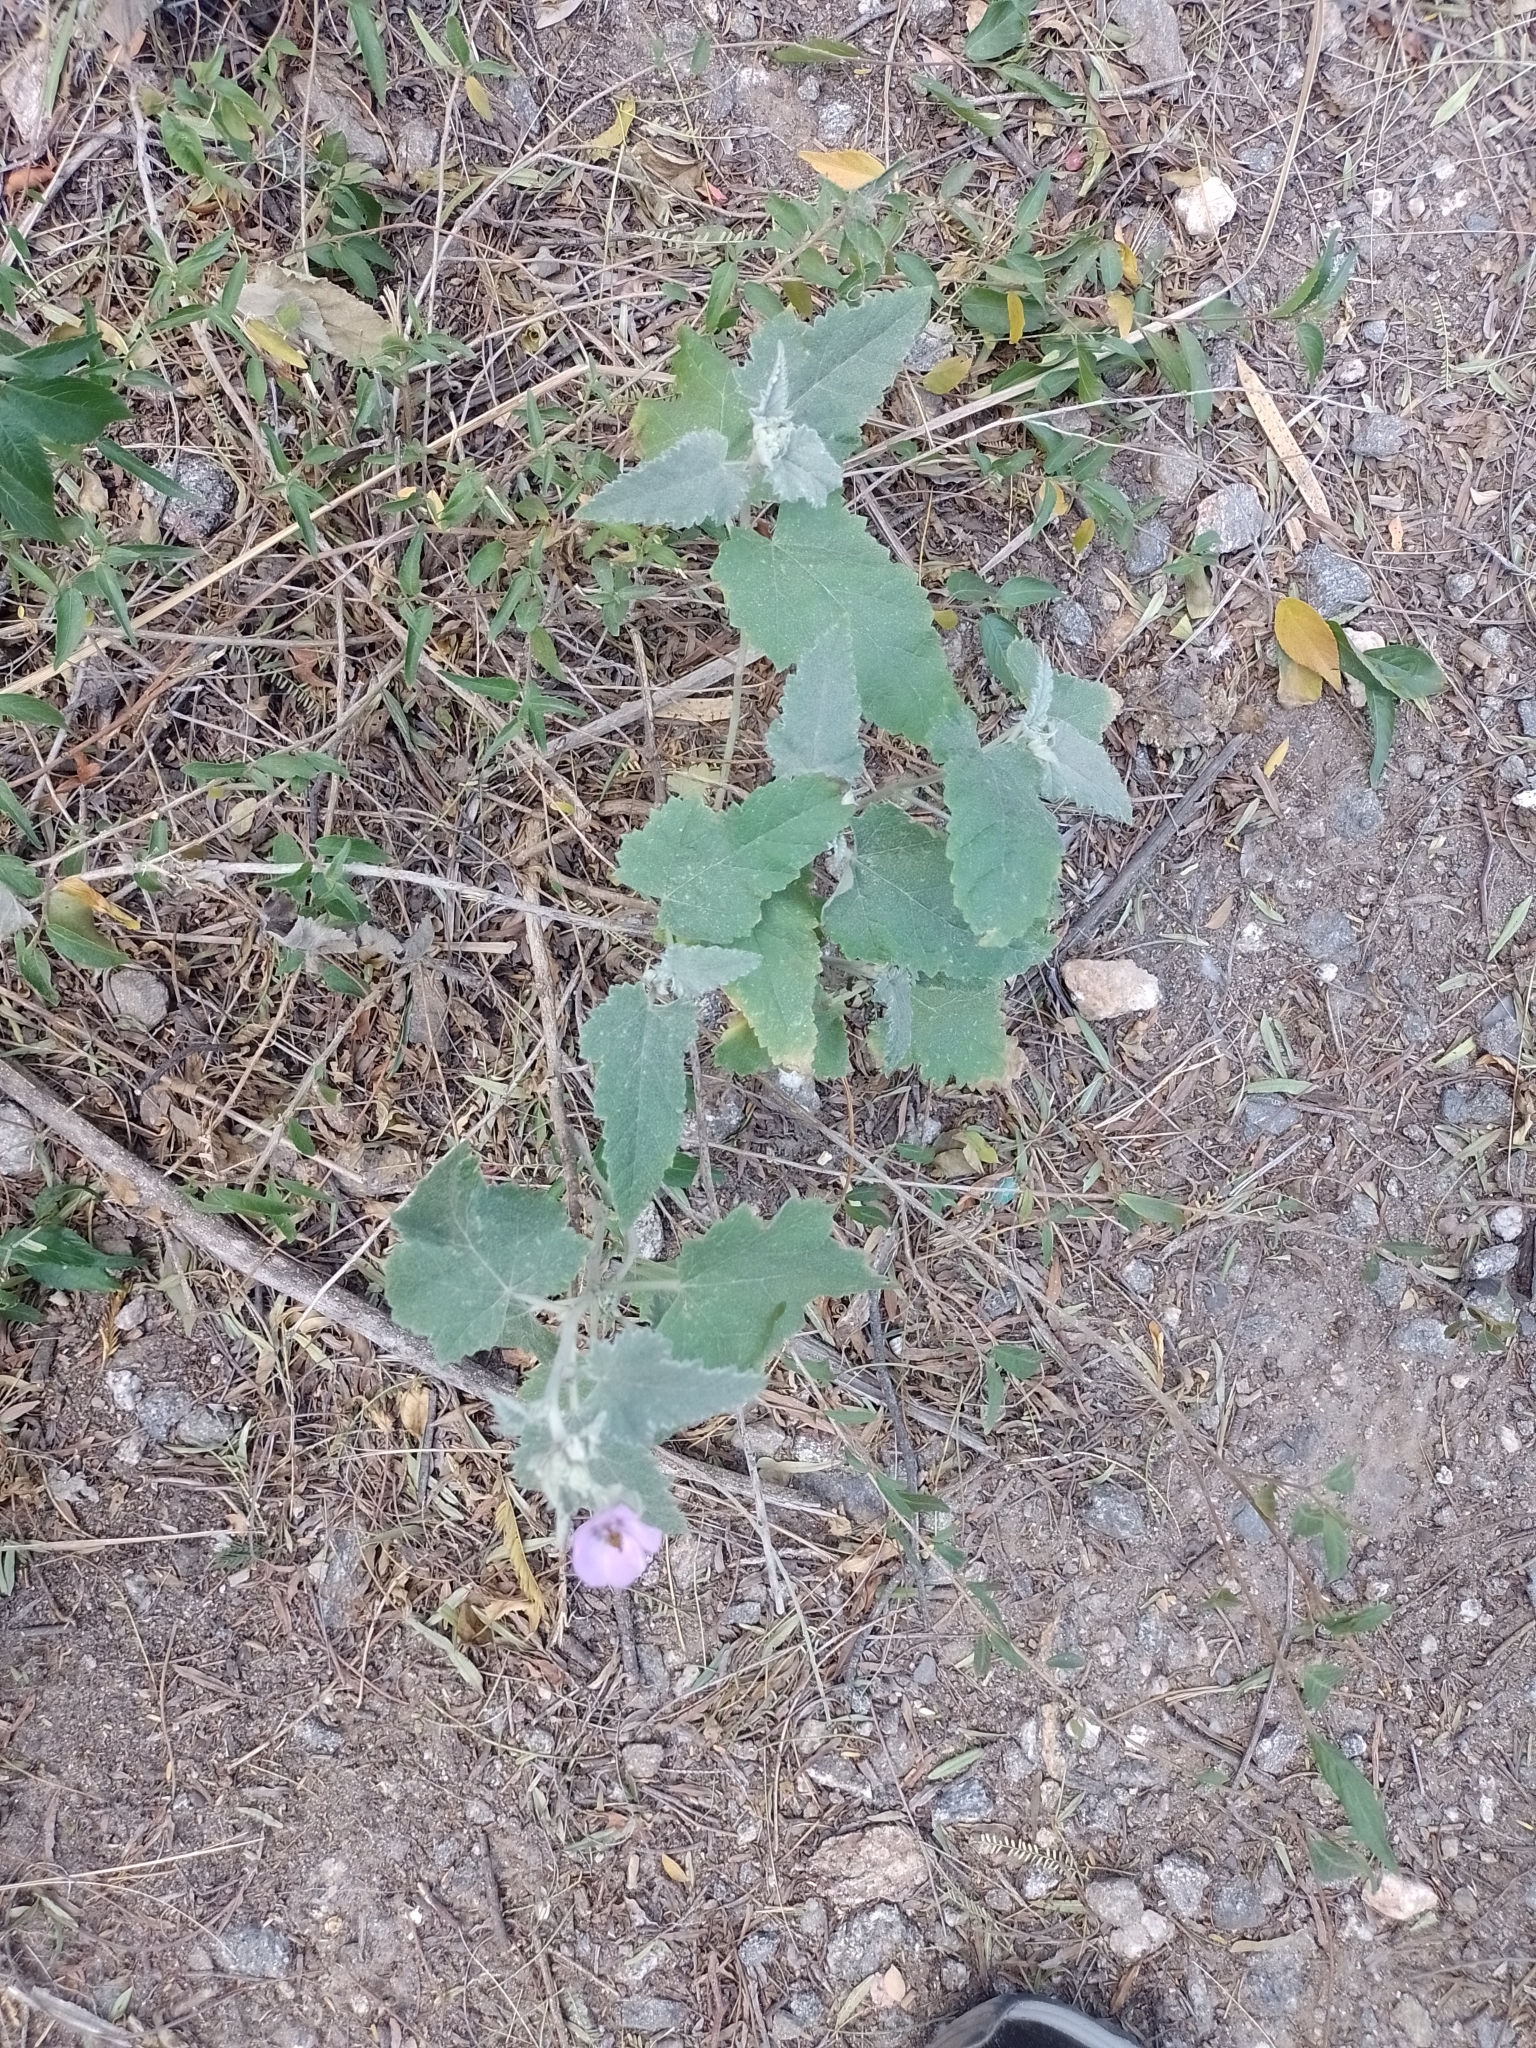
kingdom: Plantae
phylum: Tracheophyta
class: Magnoliopsida
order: Malvales
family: Malvaceae
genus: Sphaeralcea
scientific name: Sphaeralcea brevipes
